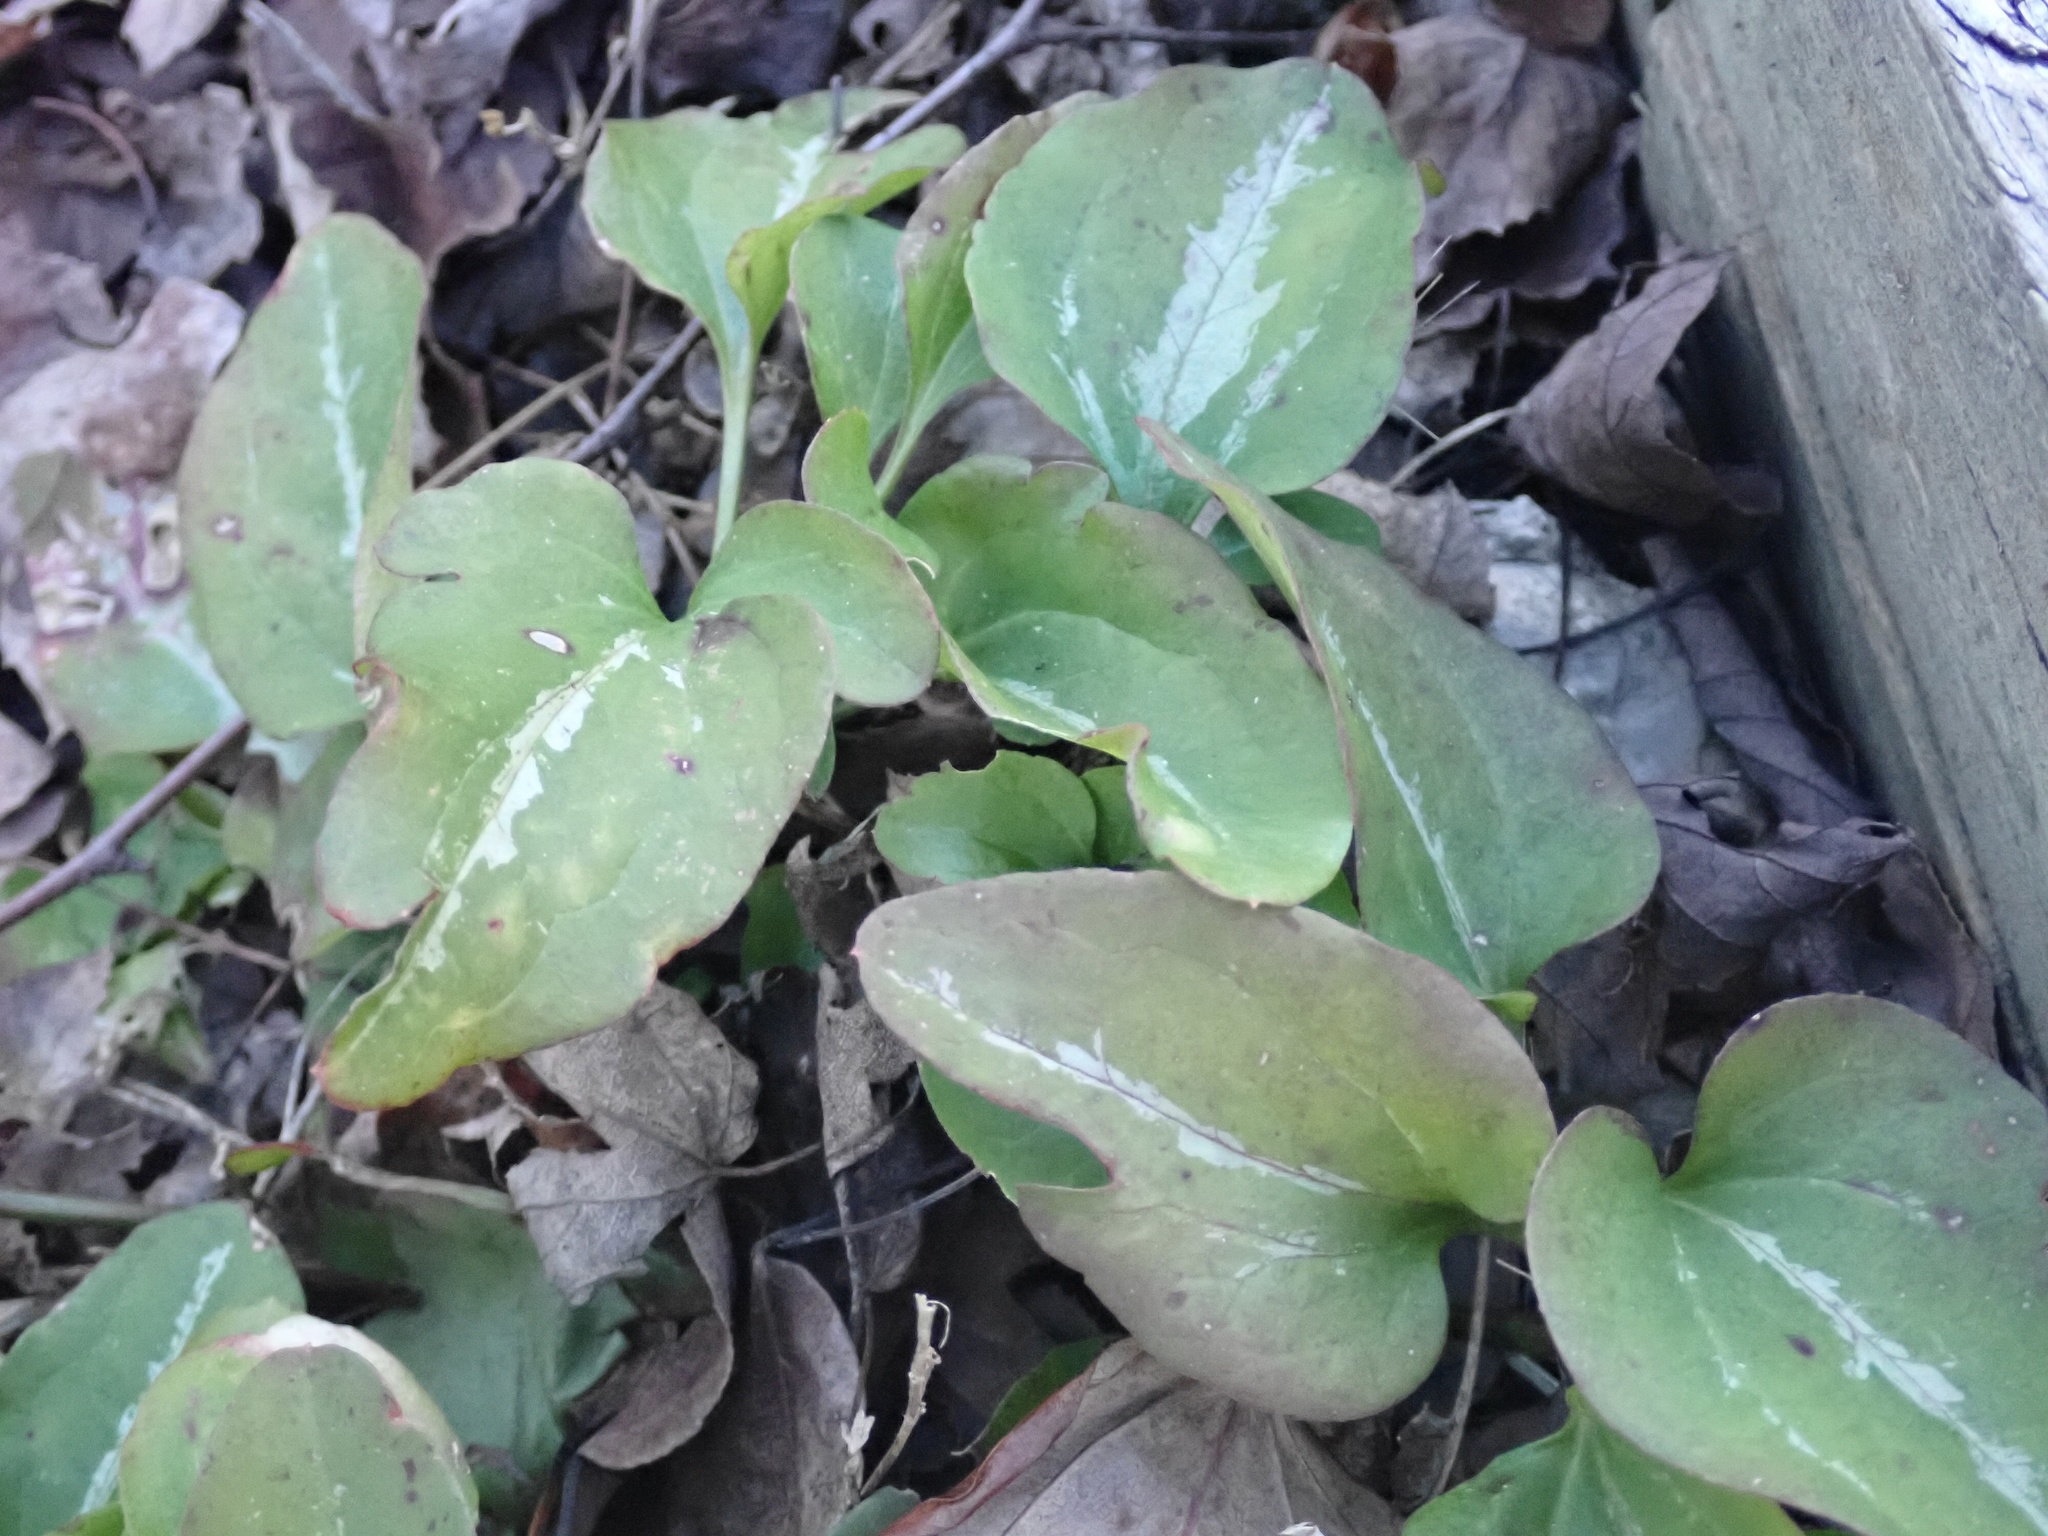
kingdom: Plantae
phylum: Tracheophyta
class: Magnoliopsida
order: Ranunculales
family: Ranunculaceae
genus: Clematis
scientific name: Clematis terniflora
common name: Sweet autumn clematis
